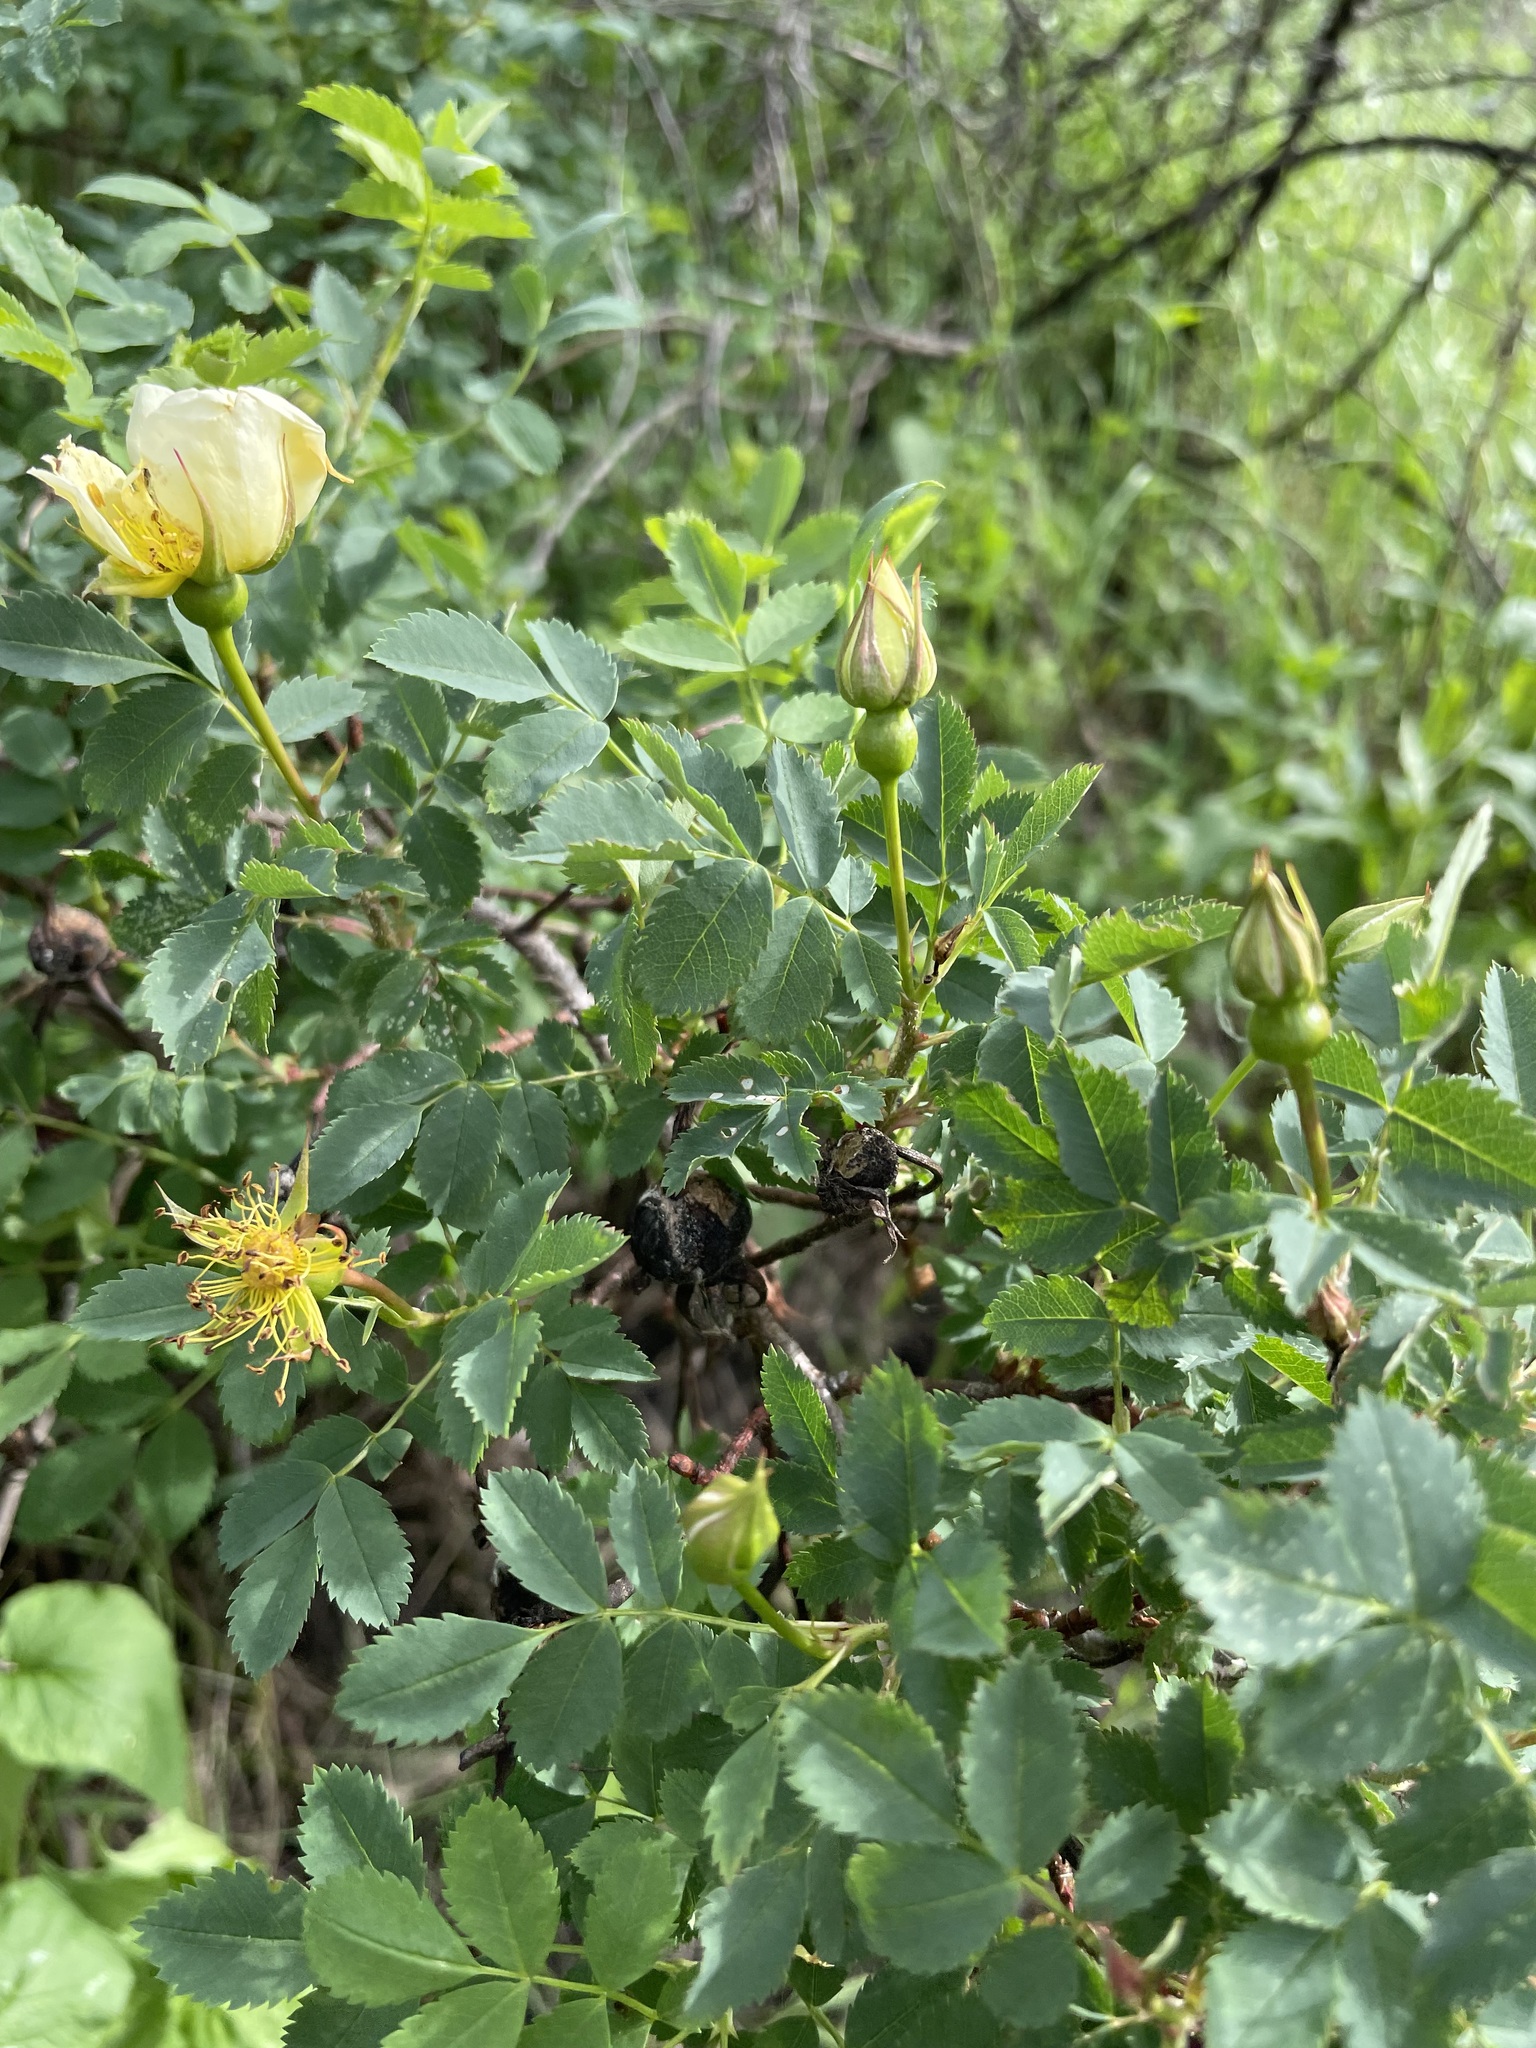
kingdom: Plantae
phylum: Tracheophyta
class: Magnoliopsida
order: Rosales
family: Rosaceae
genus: Rosa
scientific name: Rosa spinosissima
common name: Burnet rose
